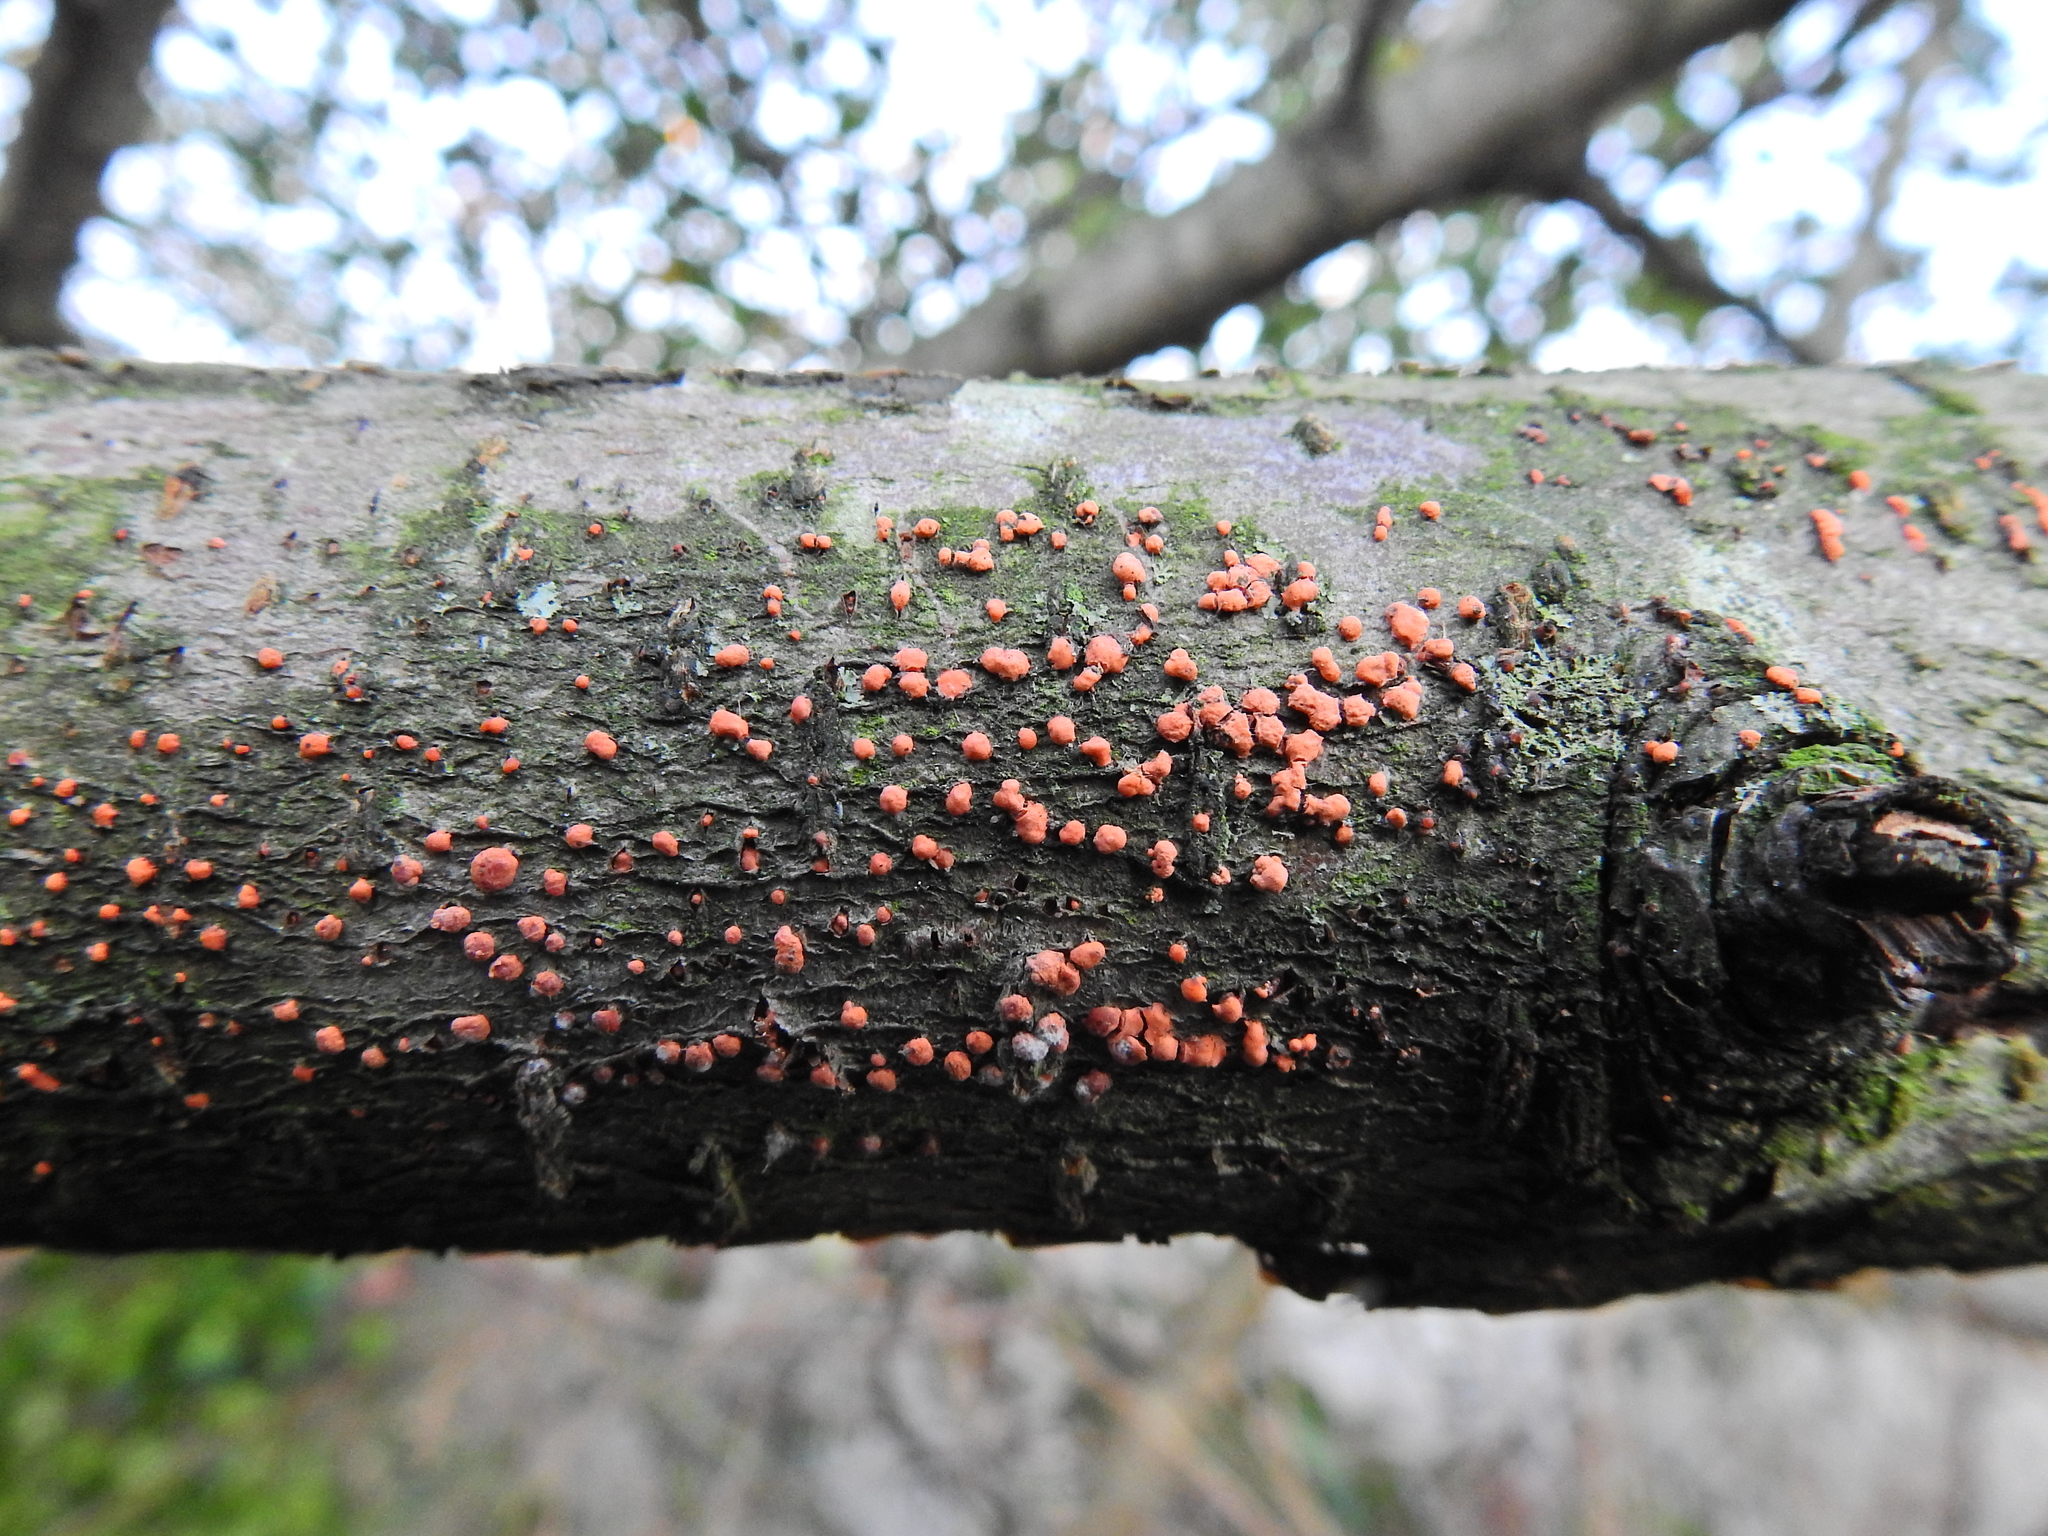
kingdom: Fungi
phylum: Ascomycota
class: Sordariomycetes
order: Hypocreales
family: Nectriaceae
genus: Nectria
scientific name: Nectria cinnabarina
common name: Coral spot
